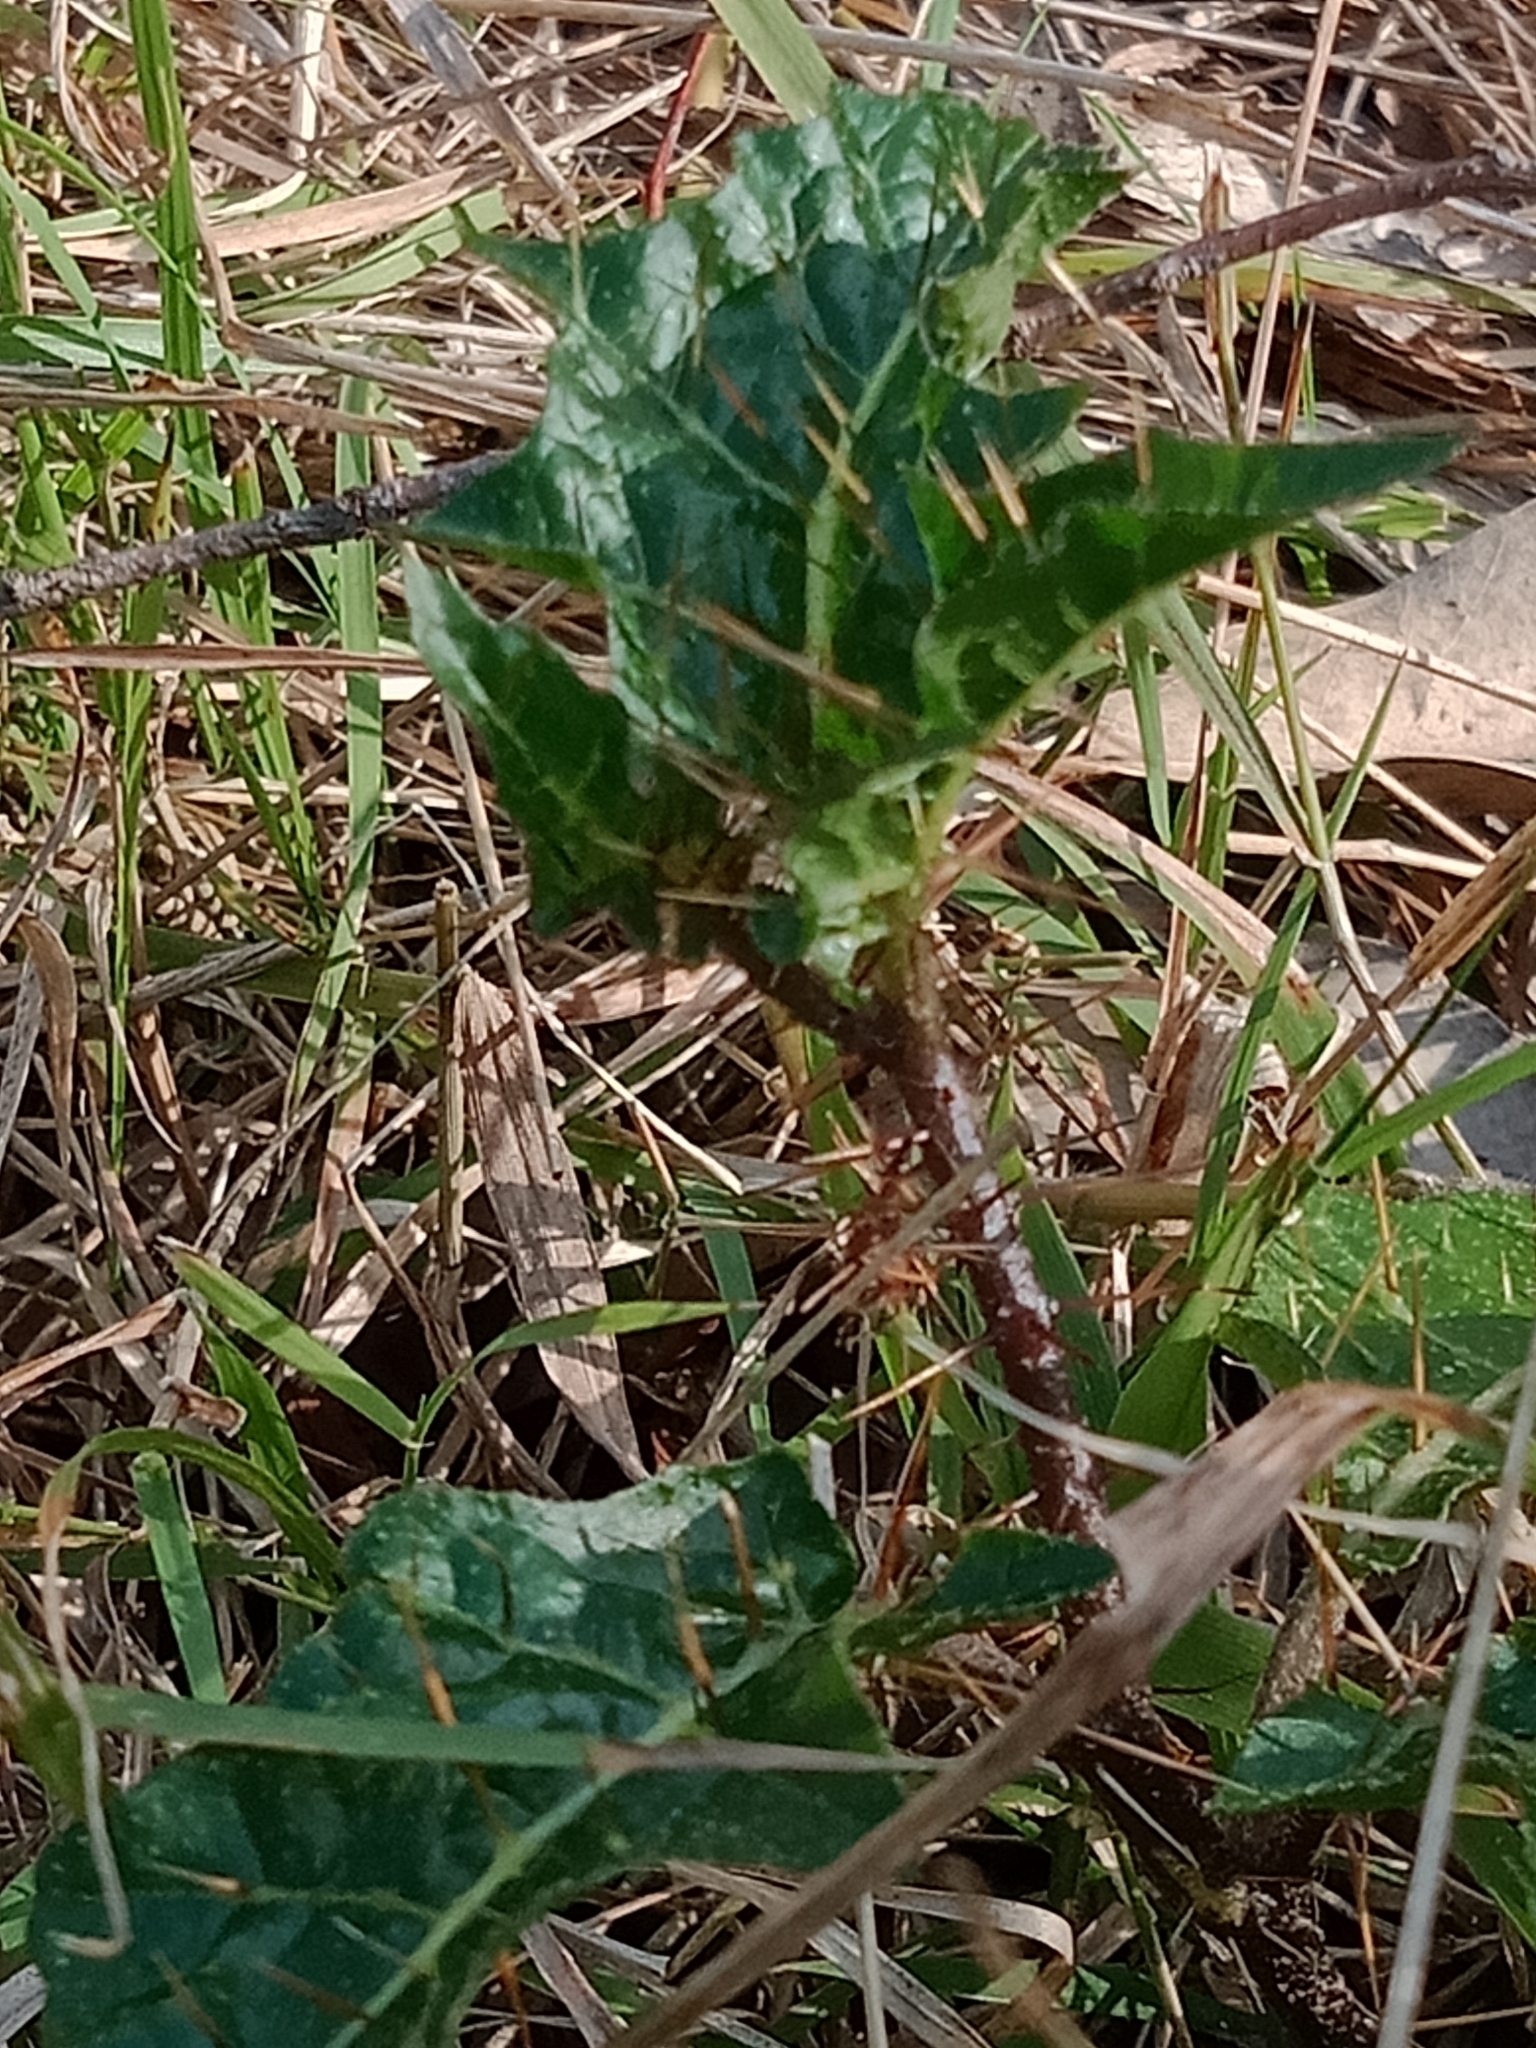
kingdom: Plantae
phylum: Tracheophyta
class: Magnoliopsida
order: Solanales
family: Solanaceae
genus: Solanum
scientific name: Solanum prinophyllum
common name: Forest nightshade
